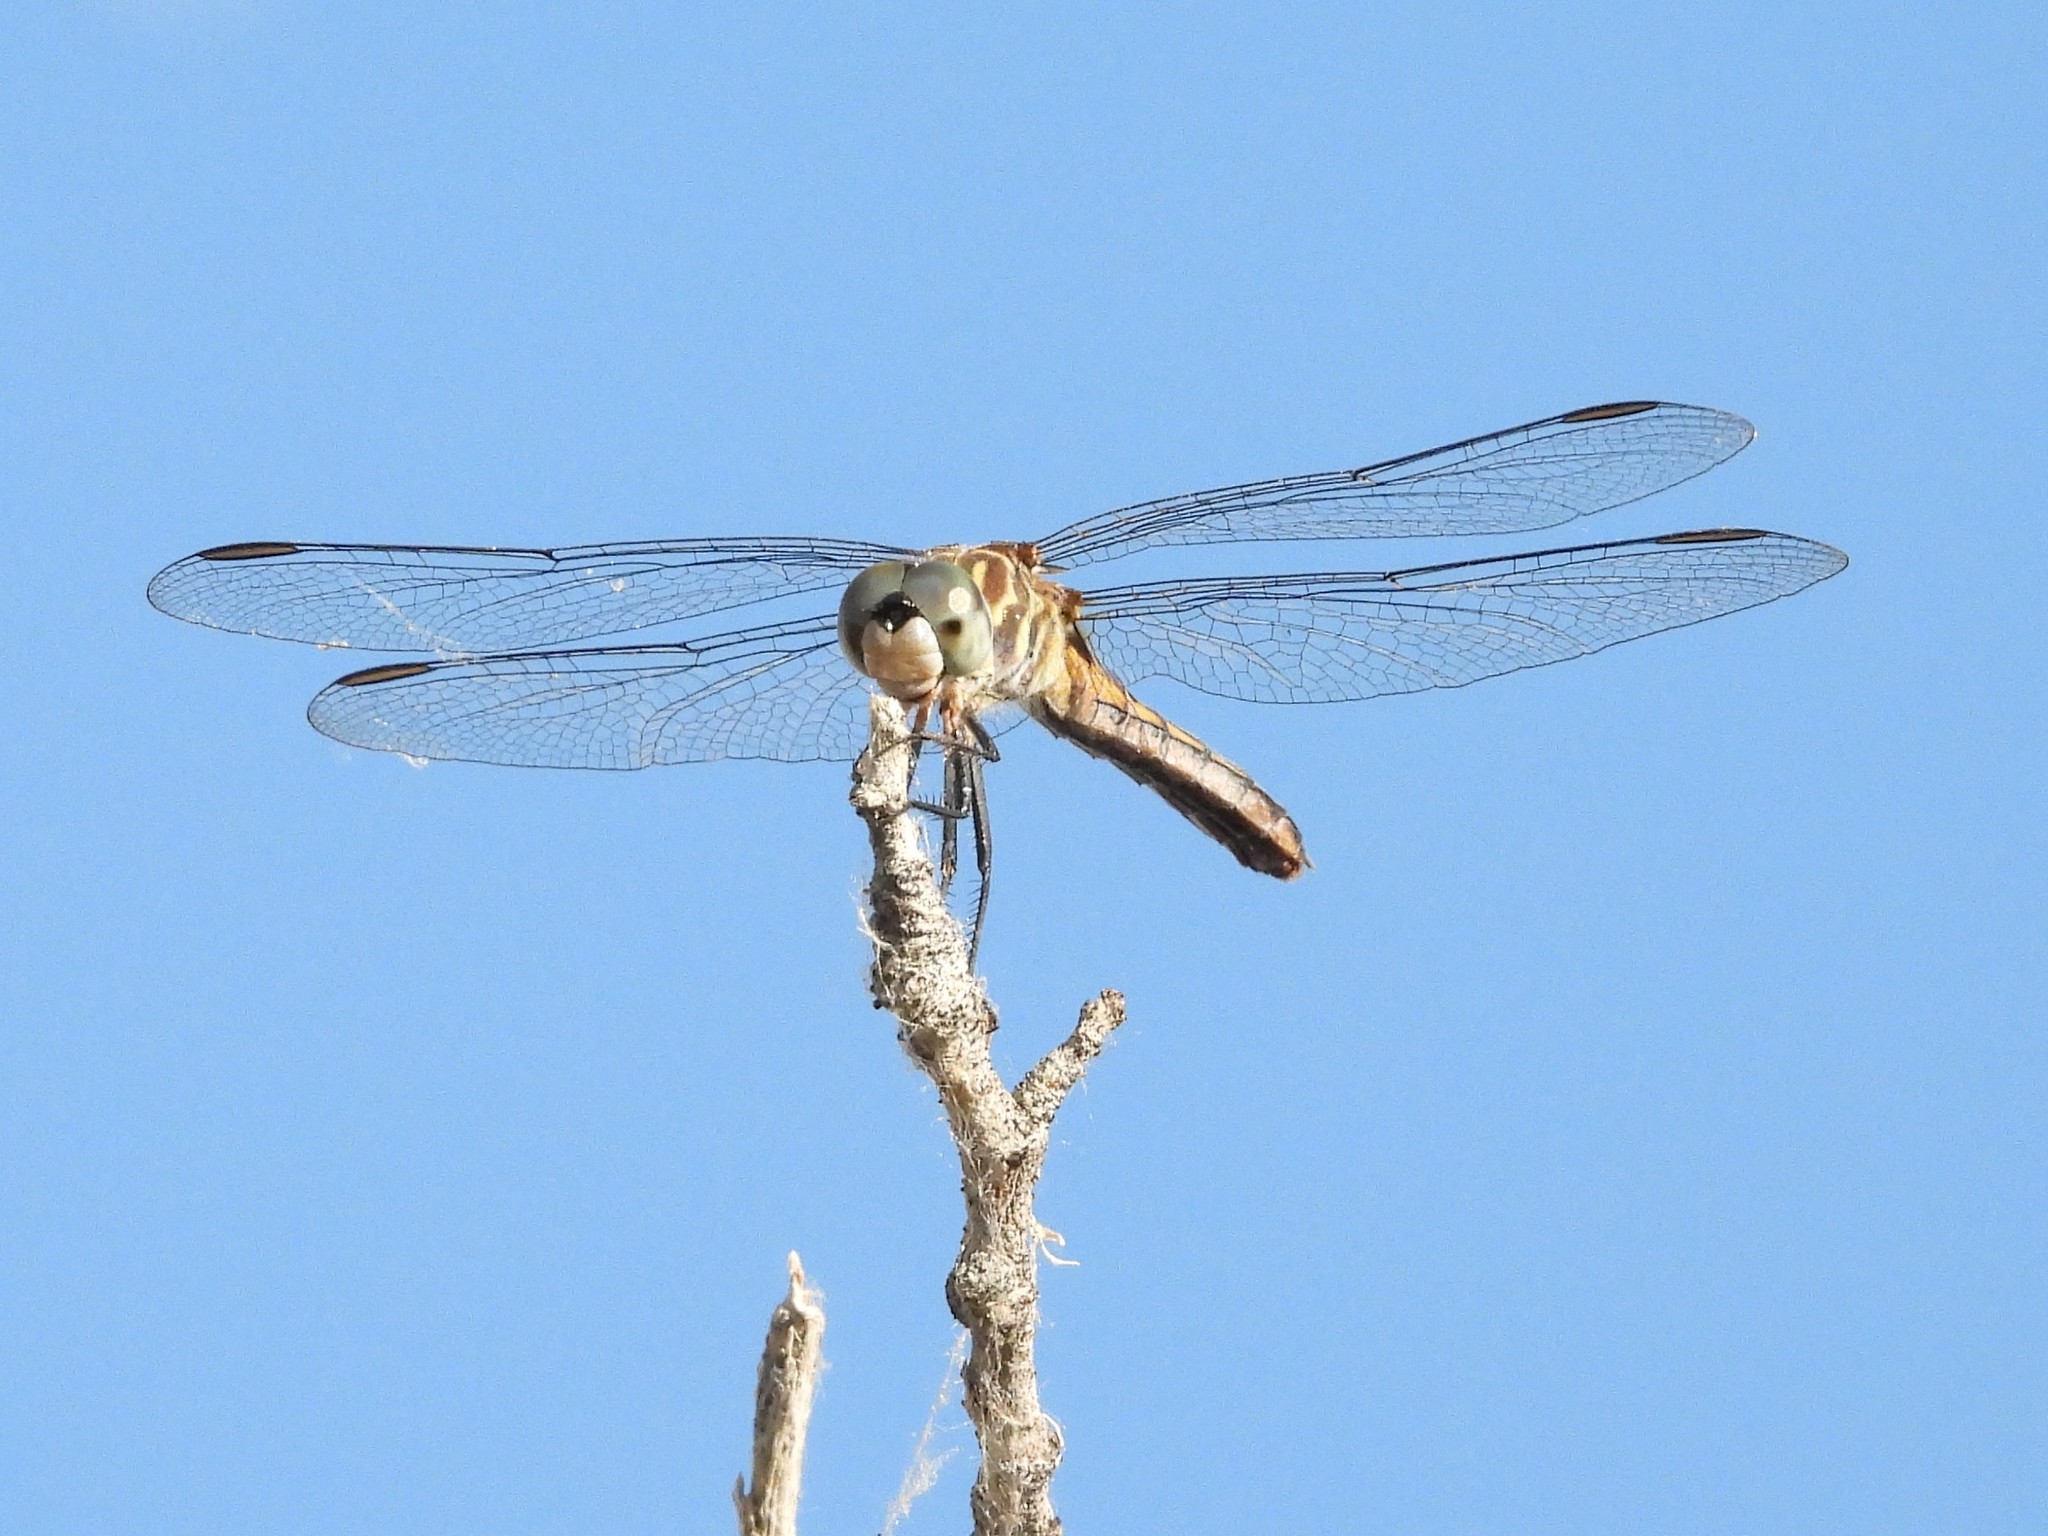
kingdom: Animalia
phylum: Arthropoda
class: Insecta
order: Odonata
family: Libellulidae
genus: Pachydiplax
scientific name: Pachydiplax longipennis
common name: Blue dasher
